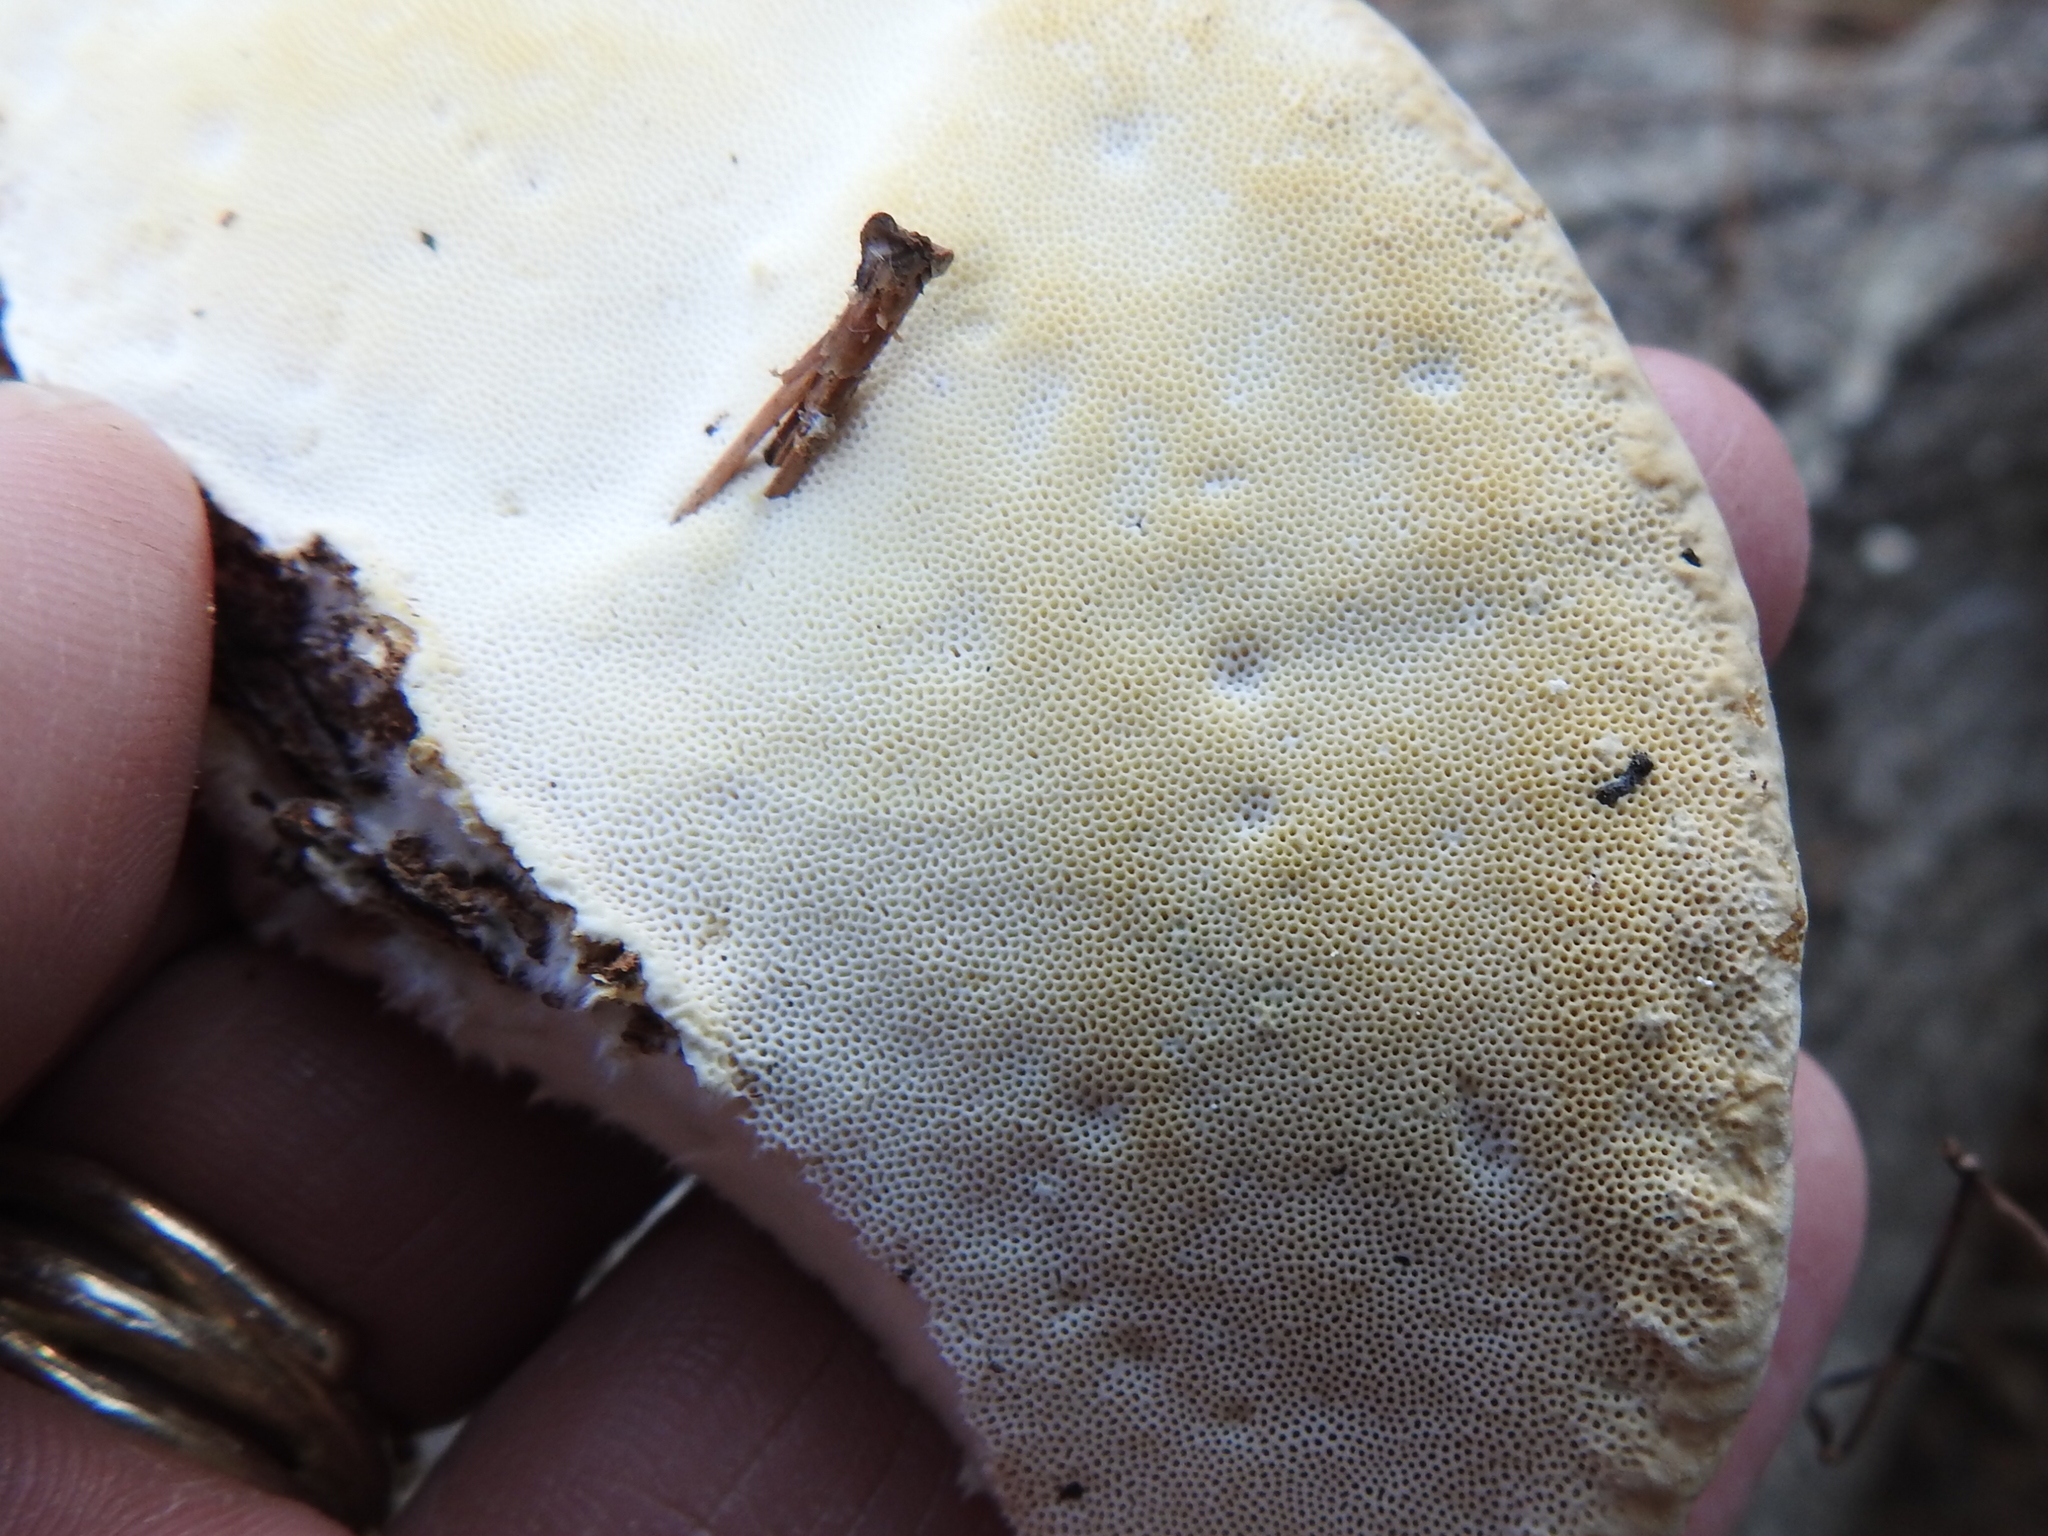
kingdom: Fungi
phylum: Basidiomycota
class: Agaricomycetes
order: Polyporales
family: Polyporaceae
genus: Trametes
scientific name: Trametes lactinea
